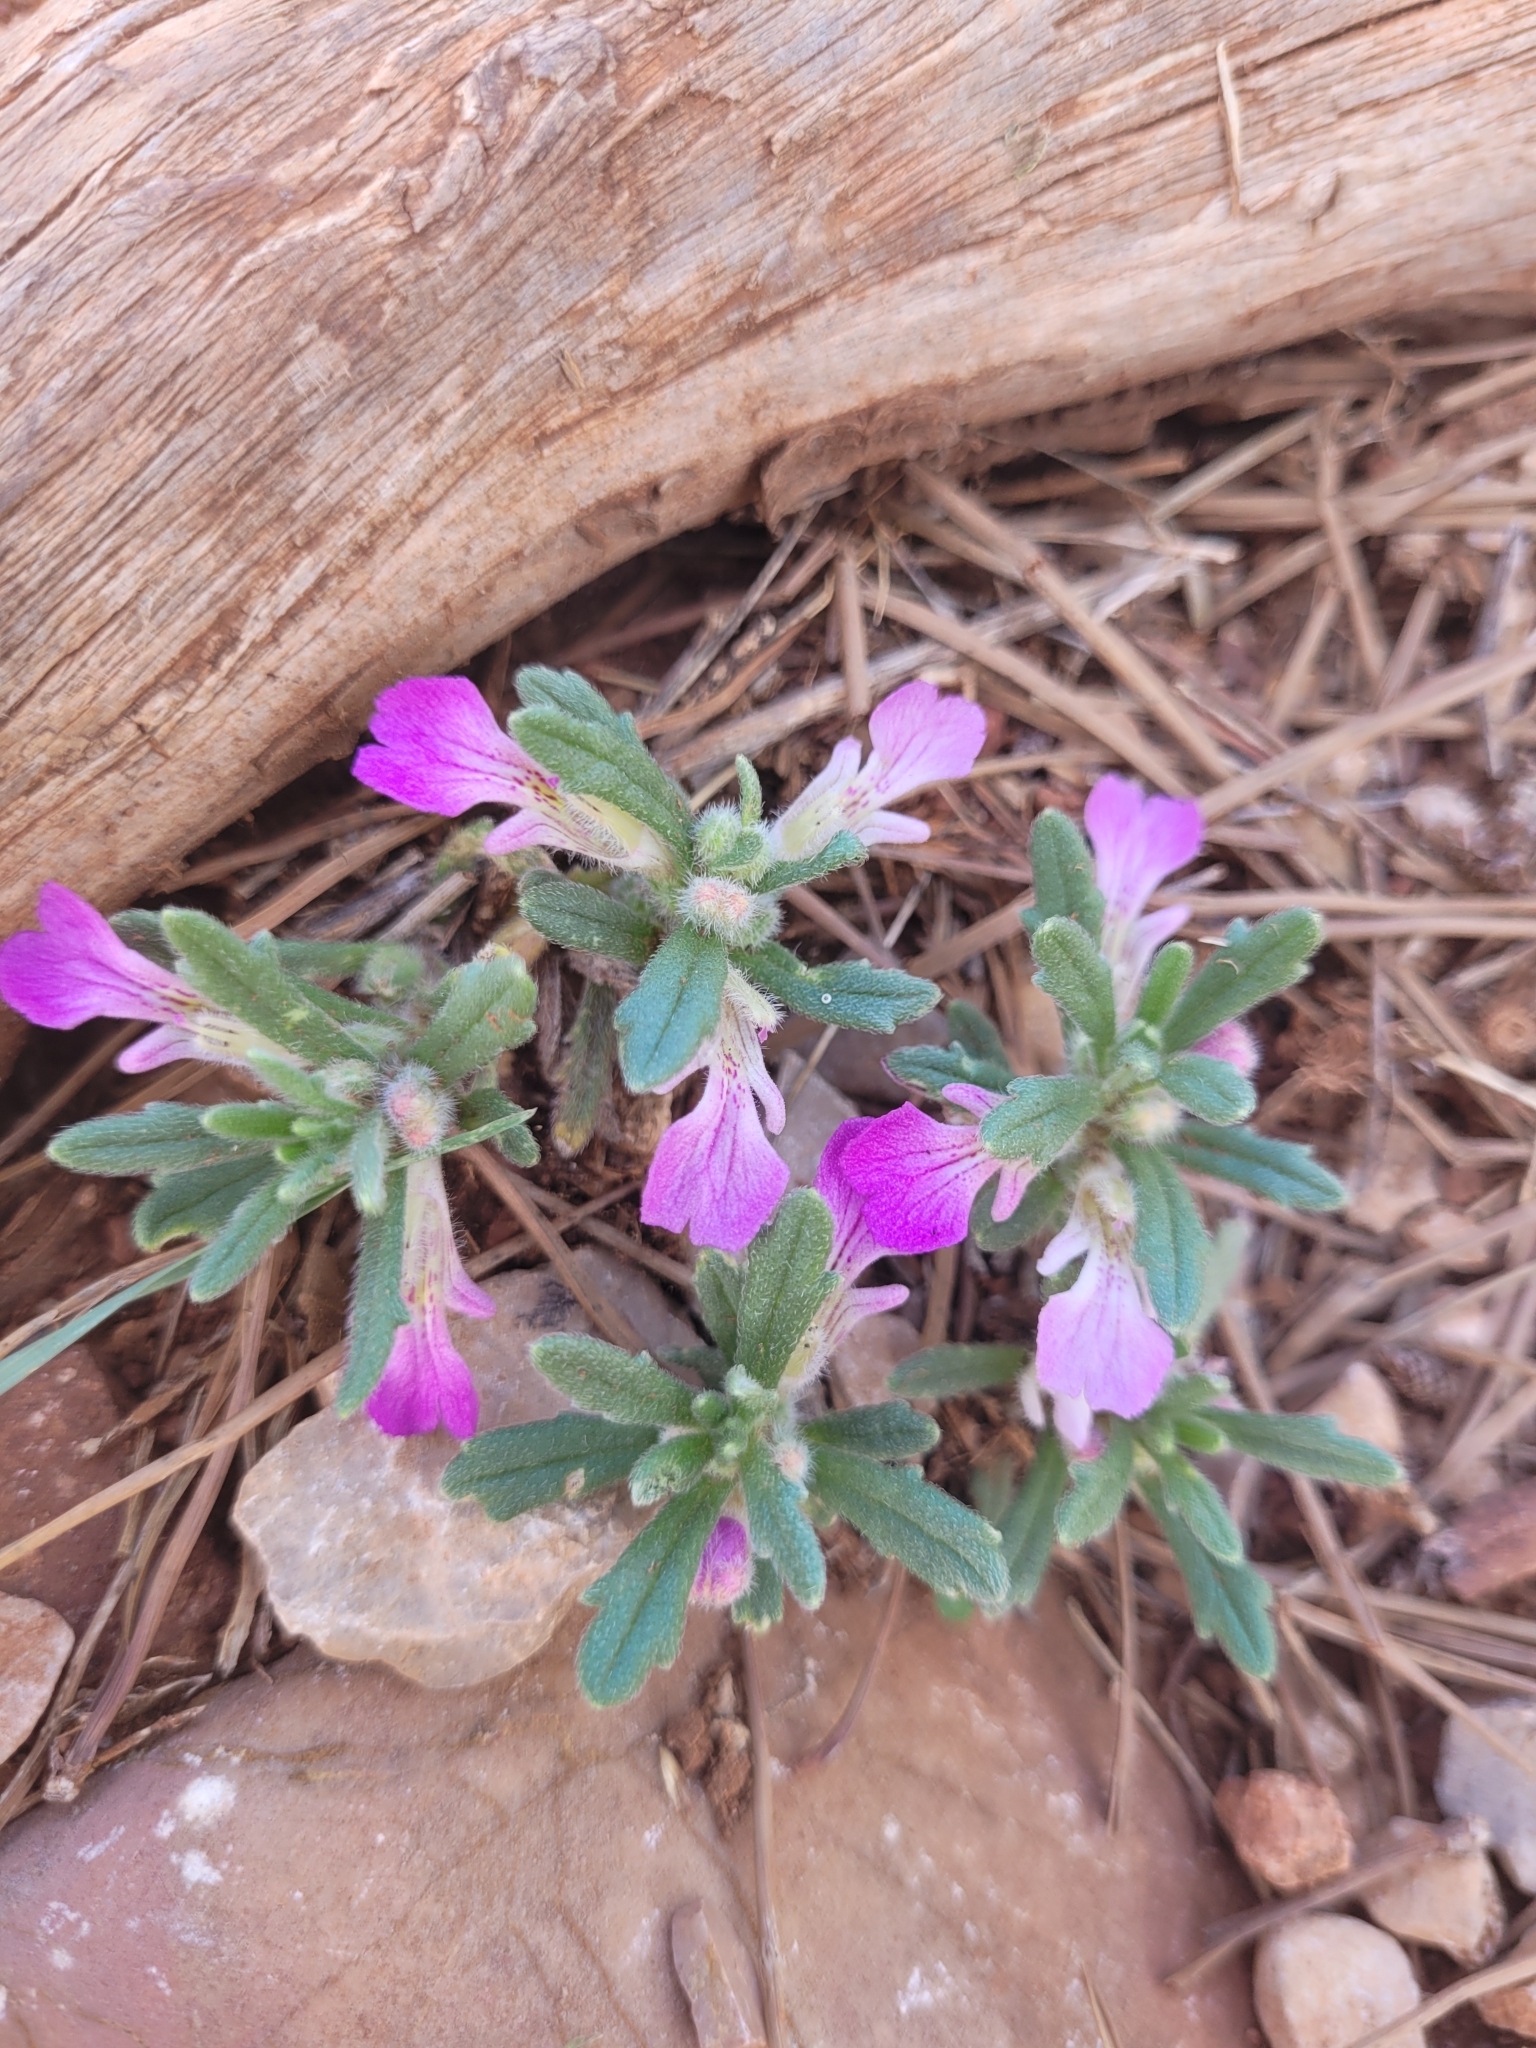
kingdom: Plantae
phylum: Tracheophyta
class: Magnoliopsida
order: Lamiales
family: Lamiaceae
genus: Ajuga
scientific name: Ajuga iva
